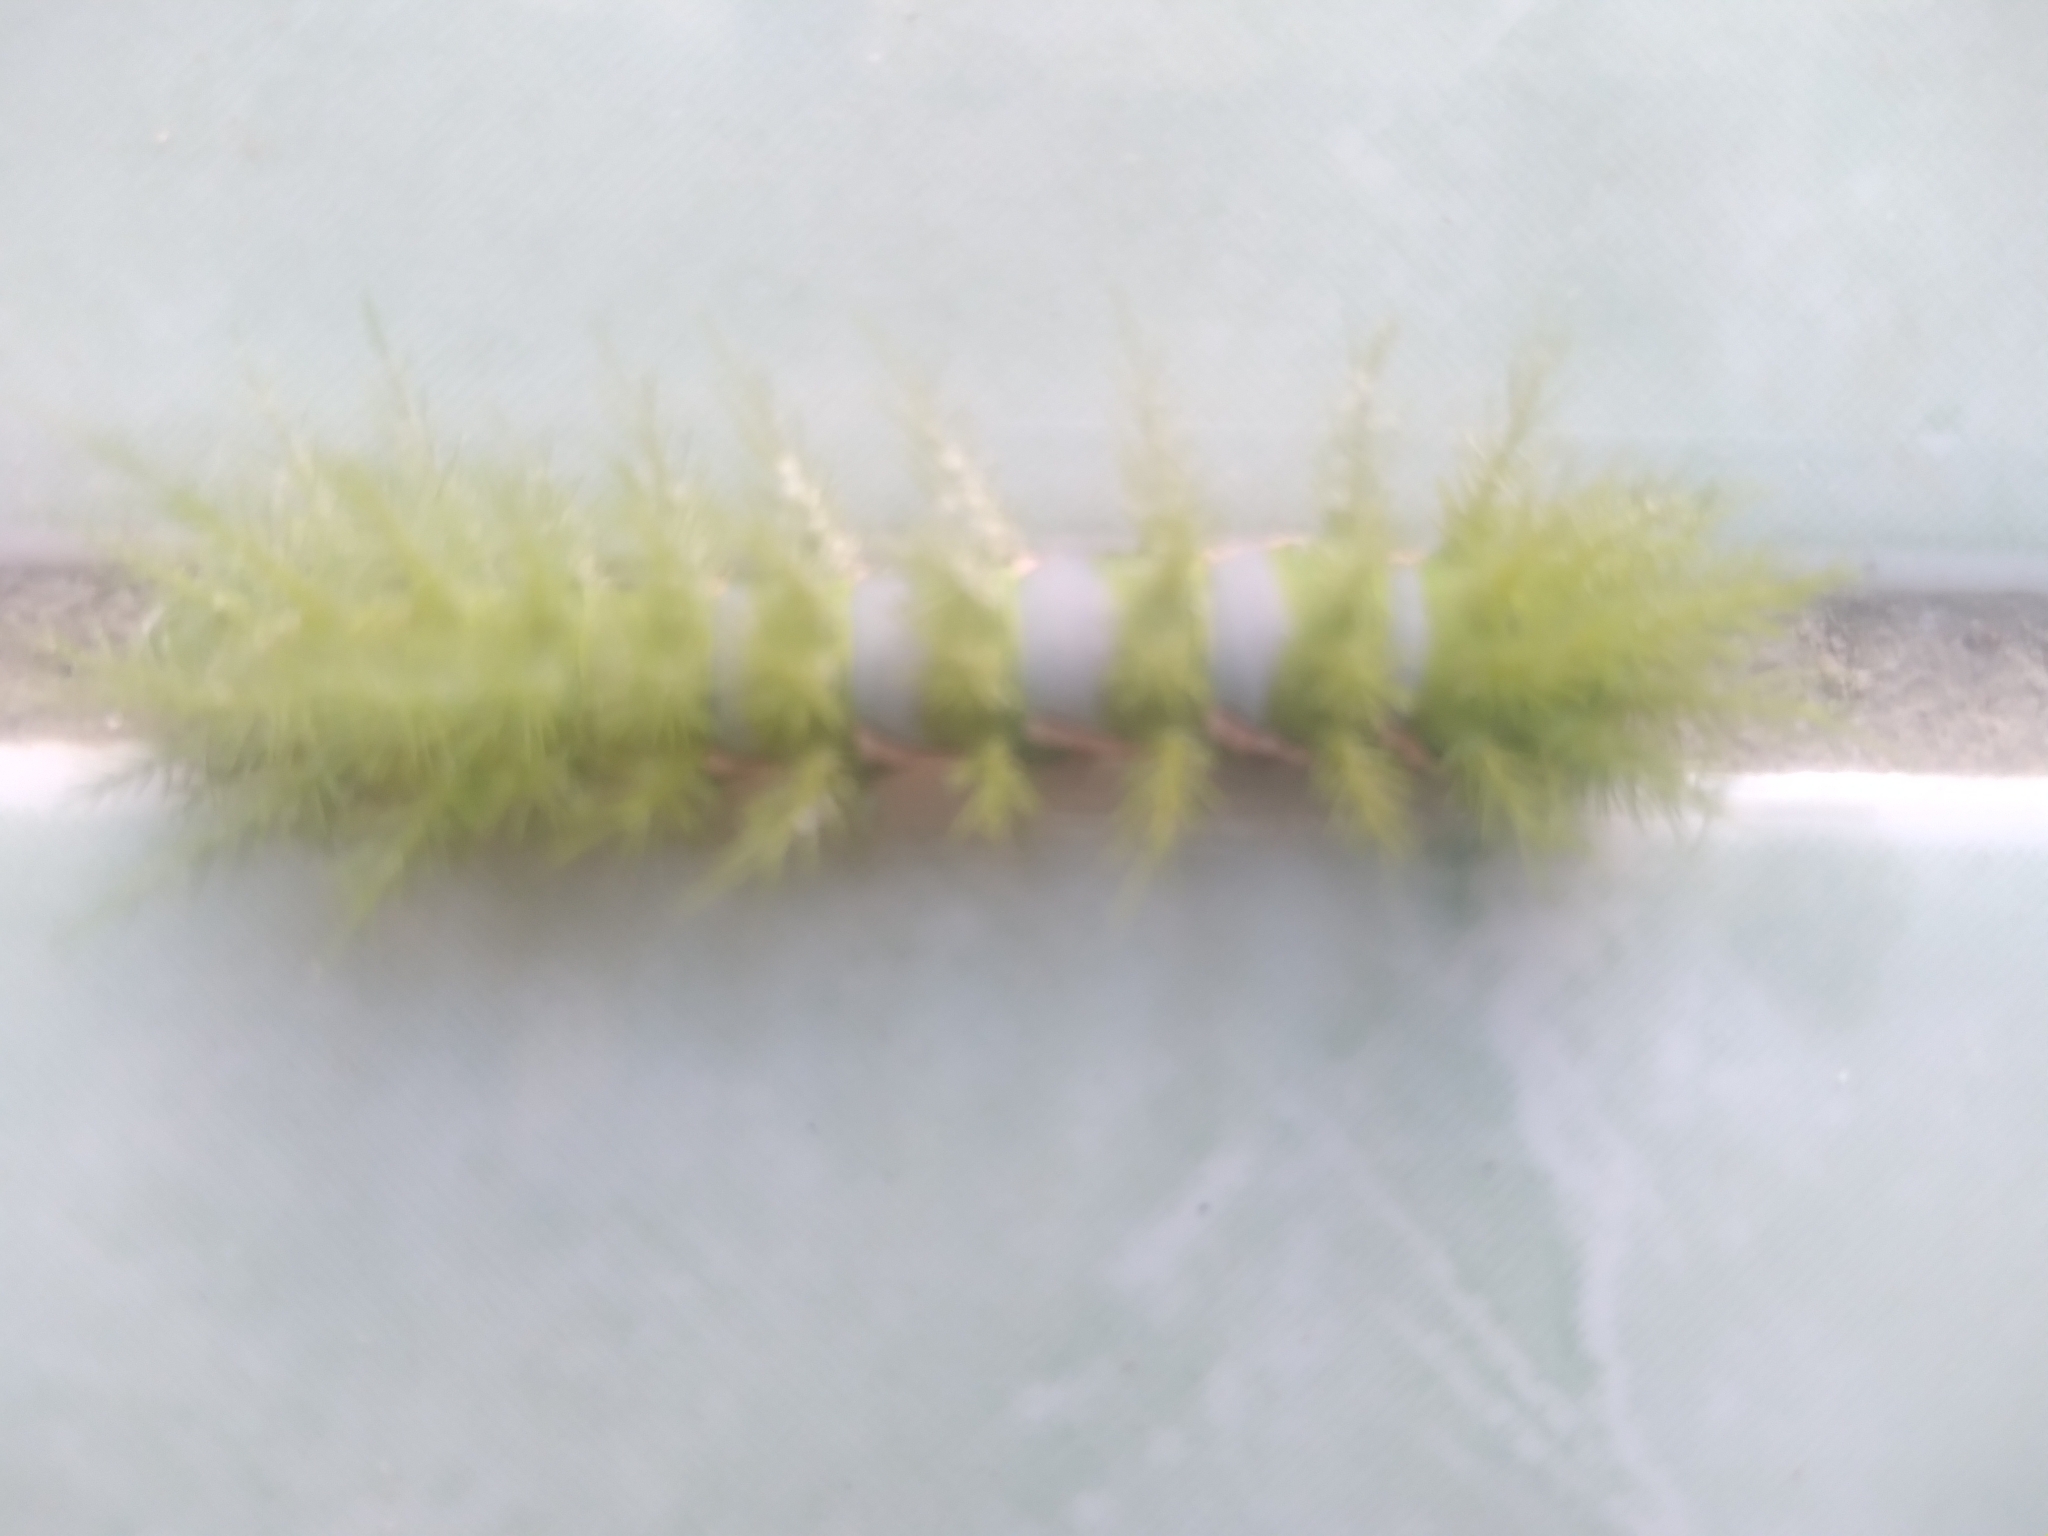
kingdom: Animalia
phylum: Arthropoda
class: Insecta
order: Lepidoptera
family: Saturniidae
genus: Automeris
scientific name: Automeris naranja
